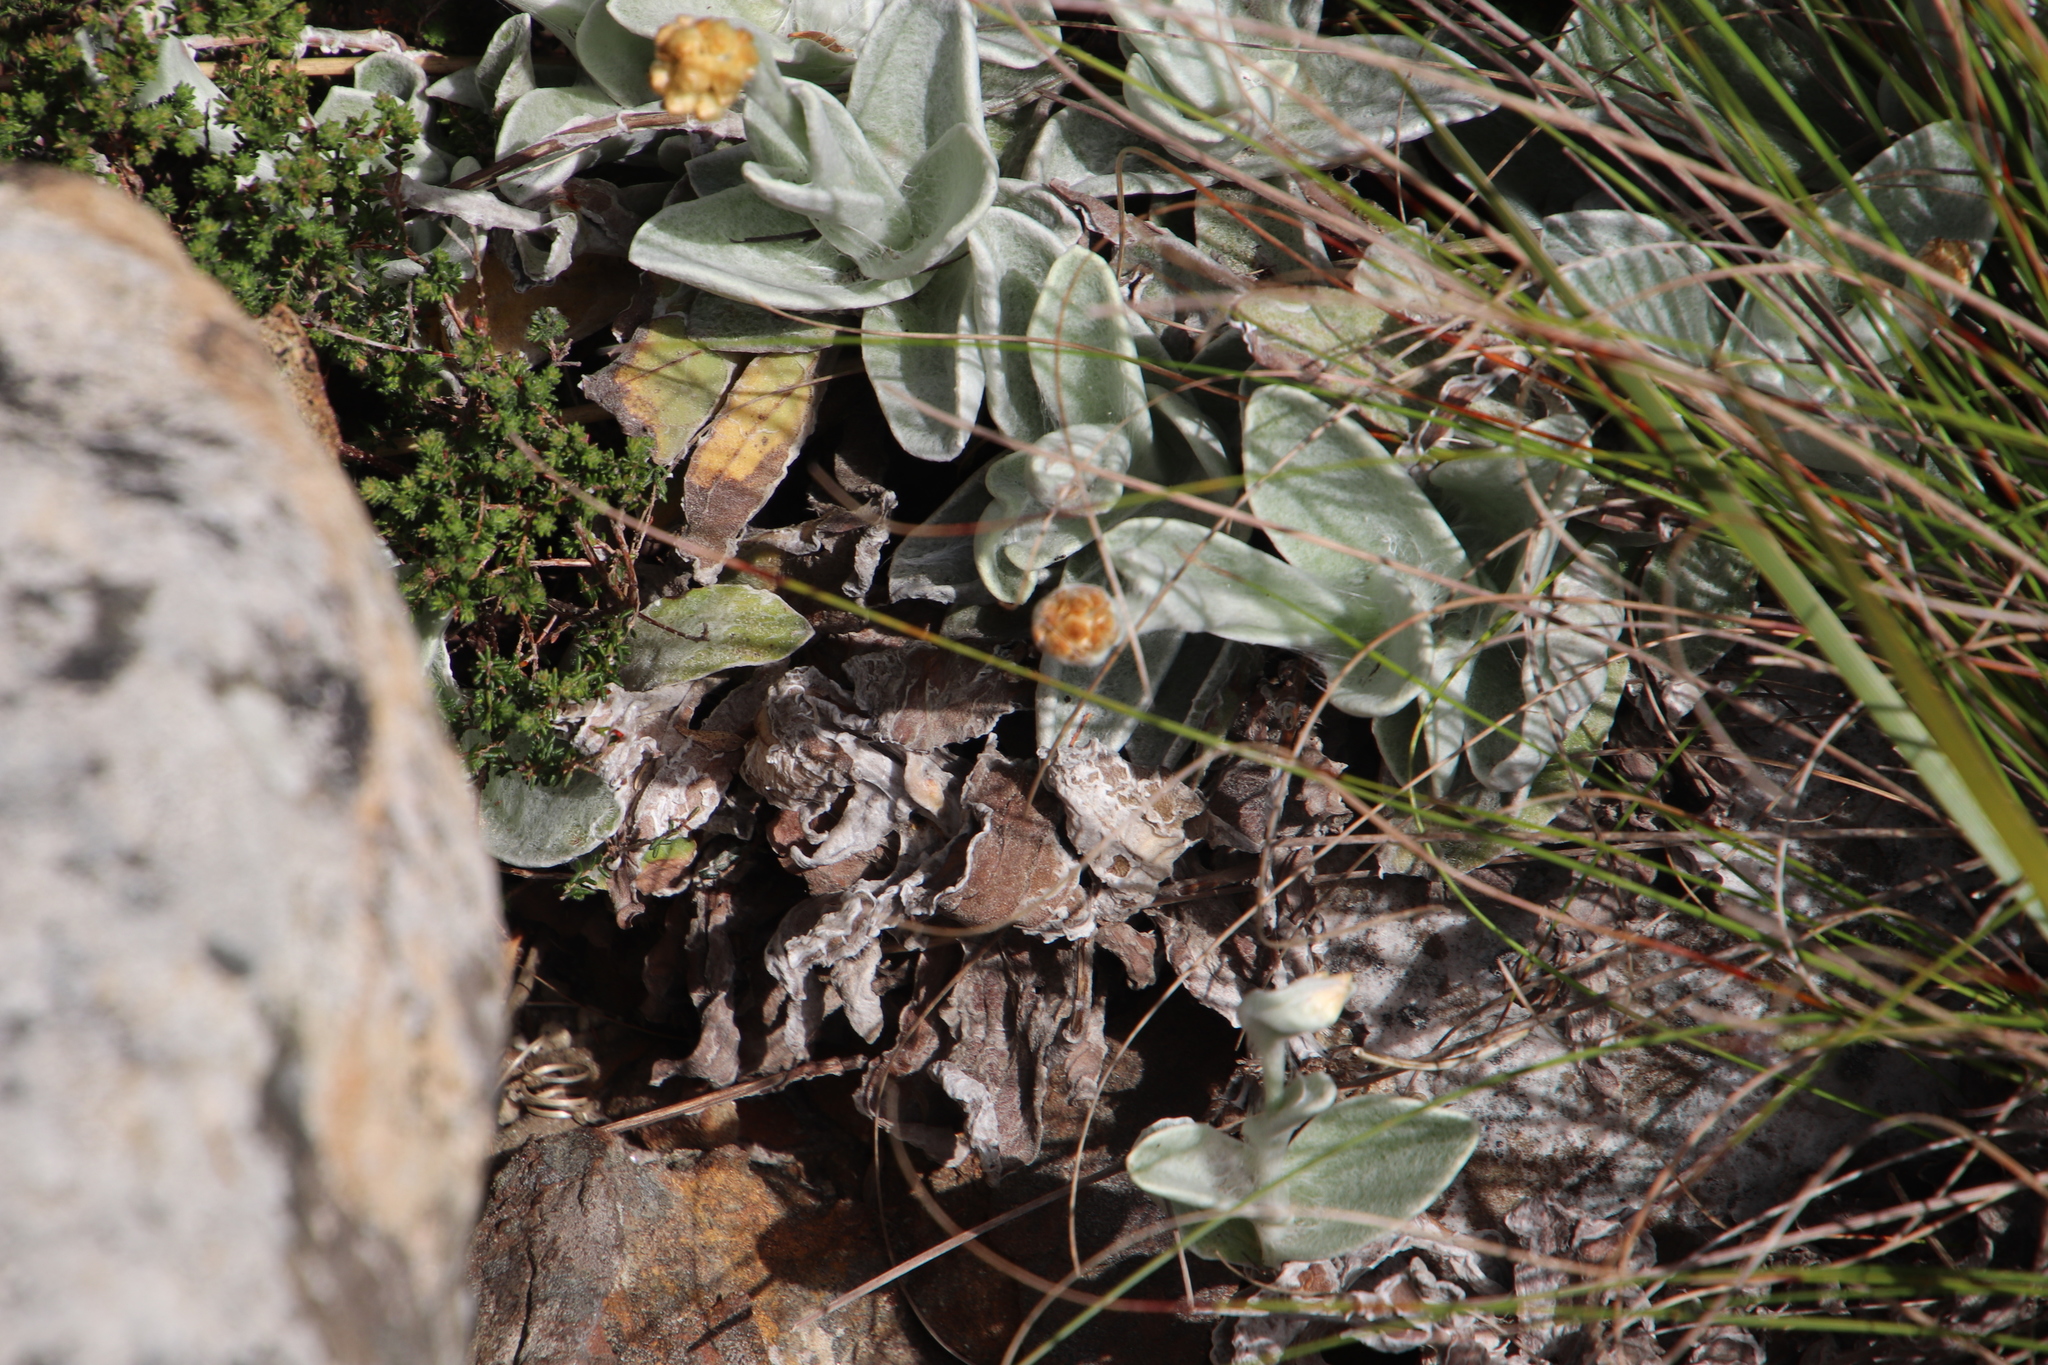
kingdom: Plantae
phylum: Tracheophyta
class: Magnoliopsida
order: Asterales
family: Asteraceae
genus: Helichrysum
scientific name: Helichrysum grandiflorum
